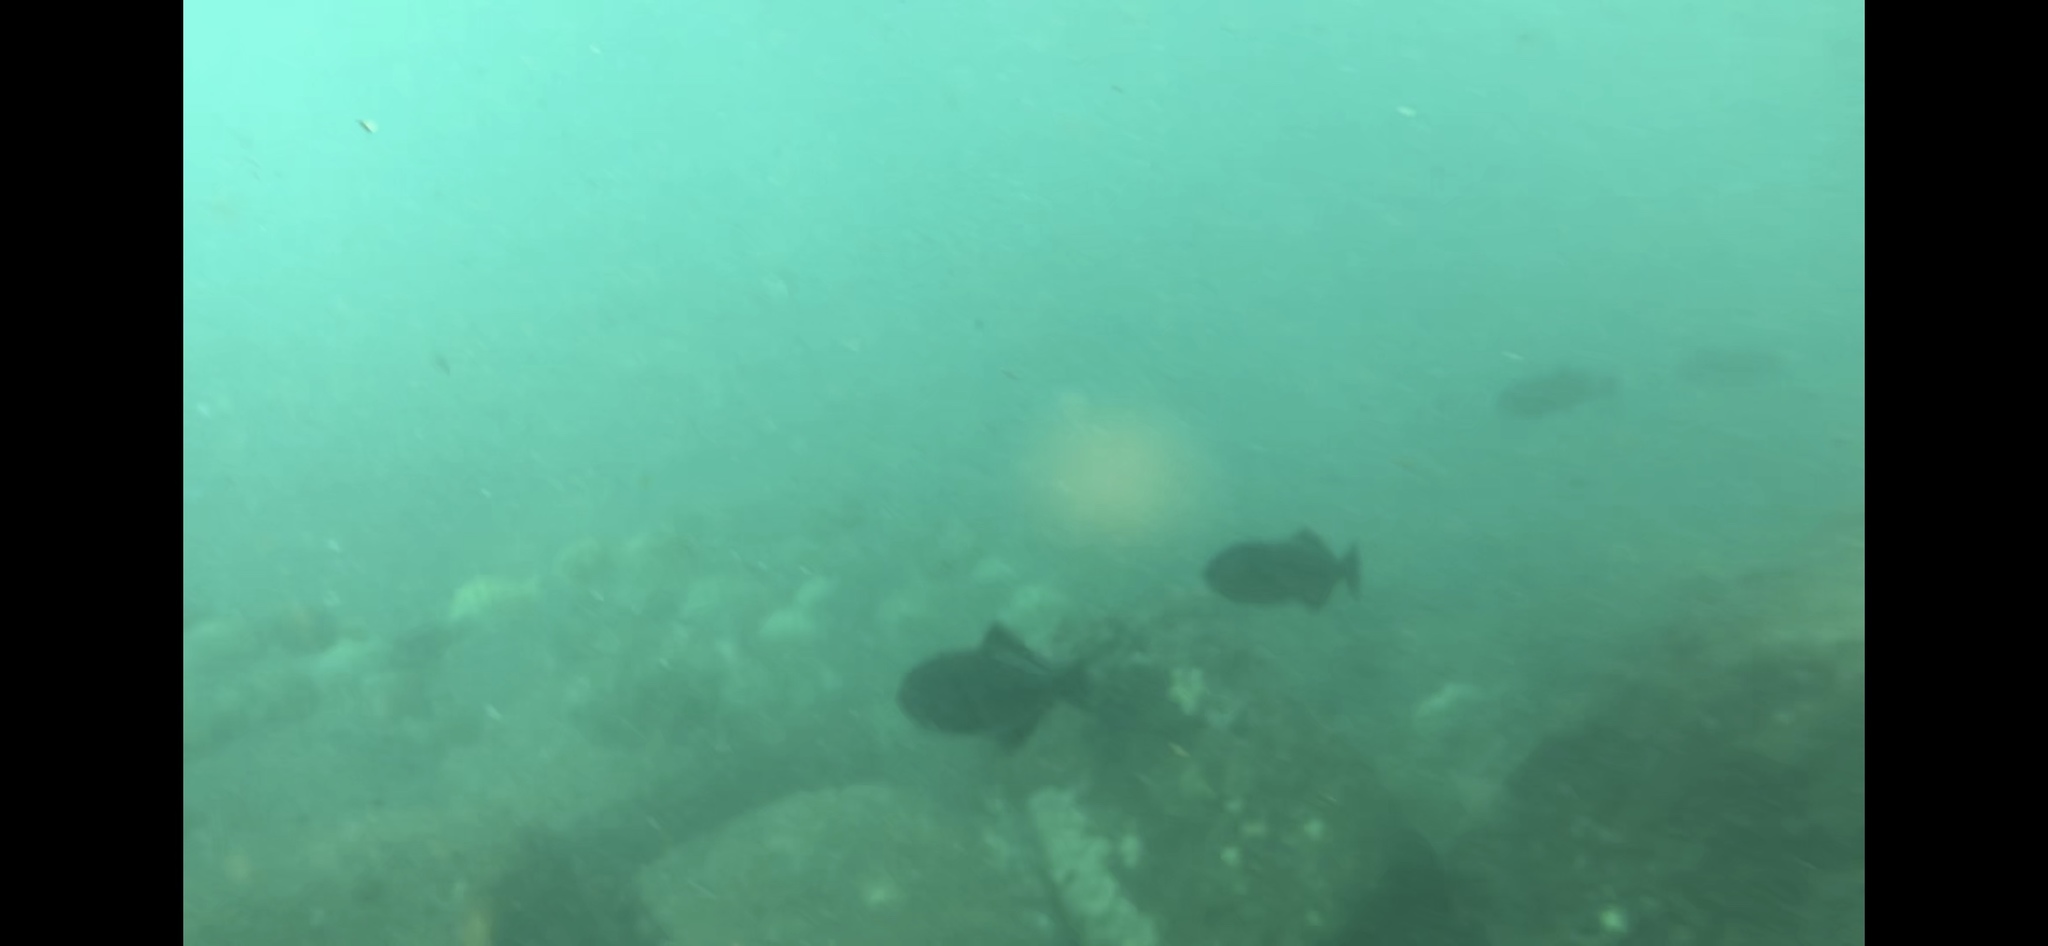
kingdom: Animalia
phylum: Chordata
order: Tetraodontiformes
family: Balistidae
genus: Melichthys
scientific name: Melichthys niger
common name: Black durgon
